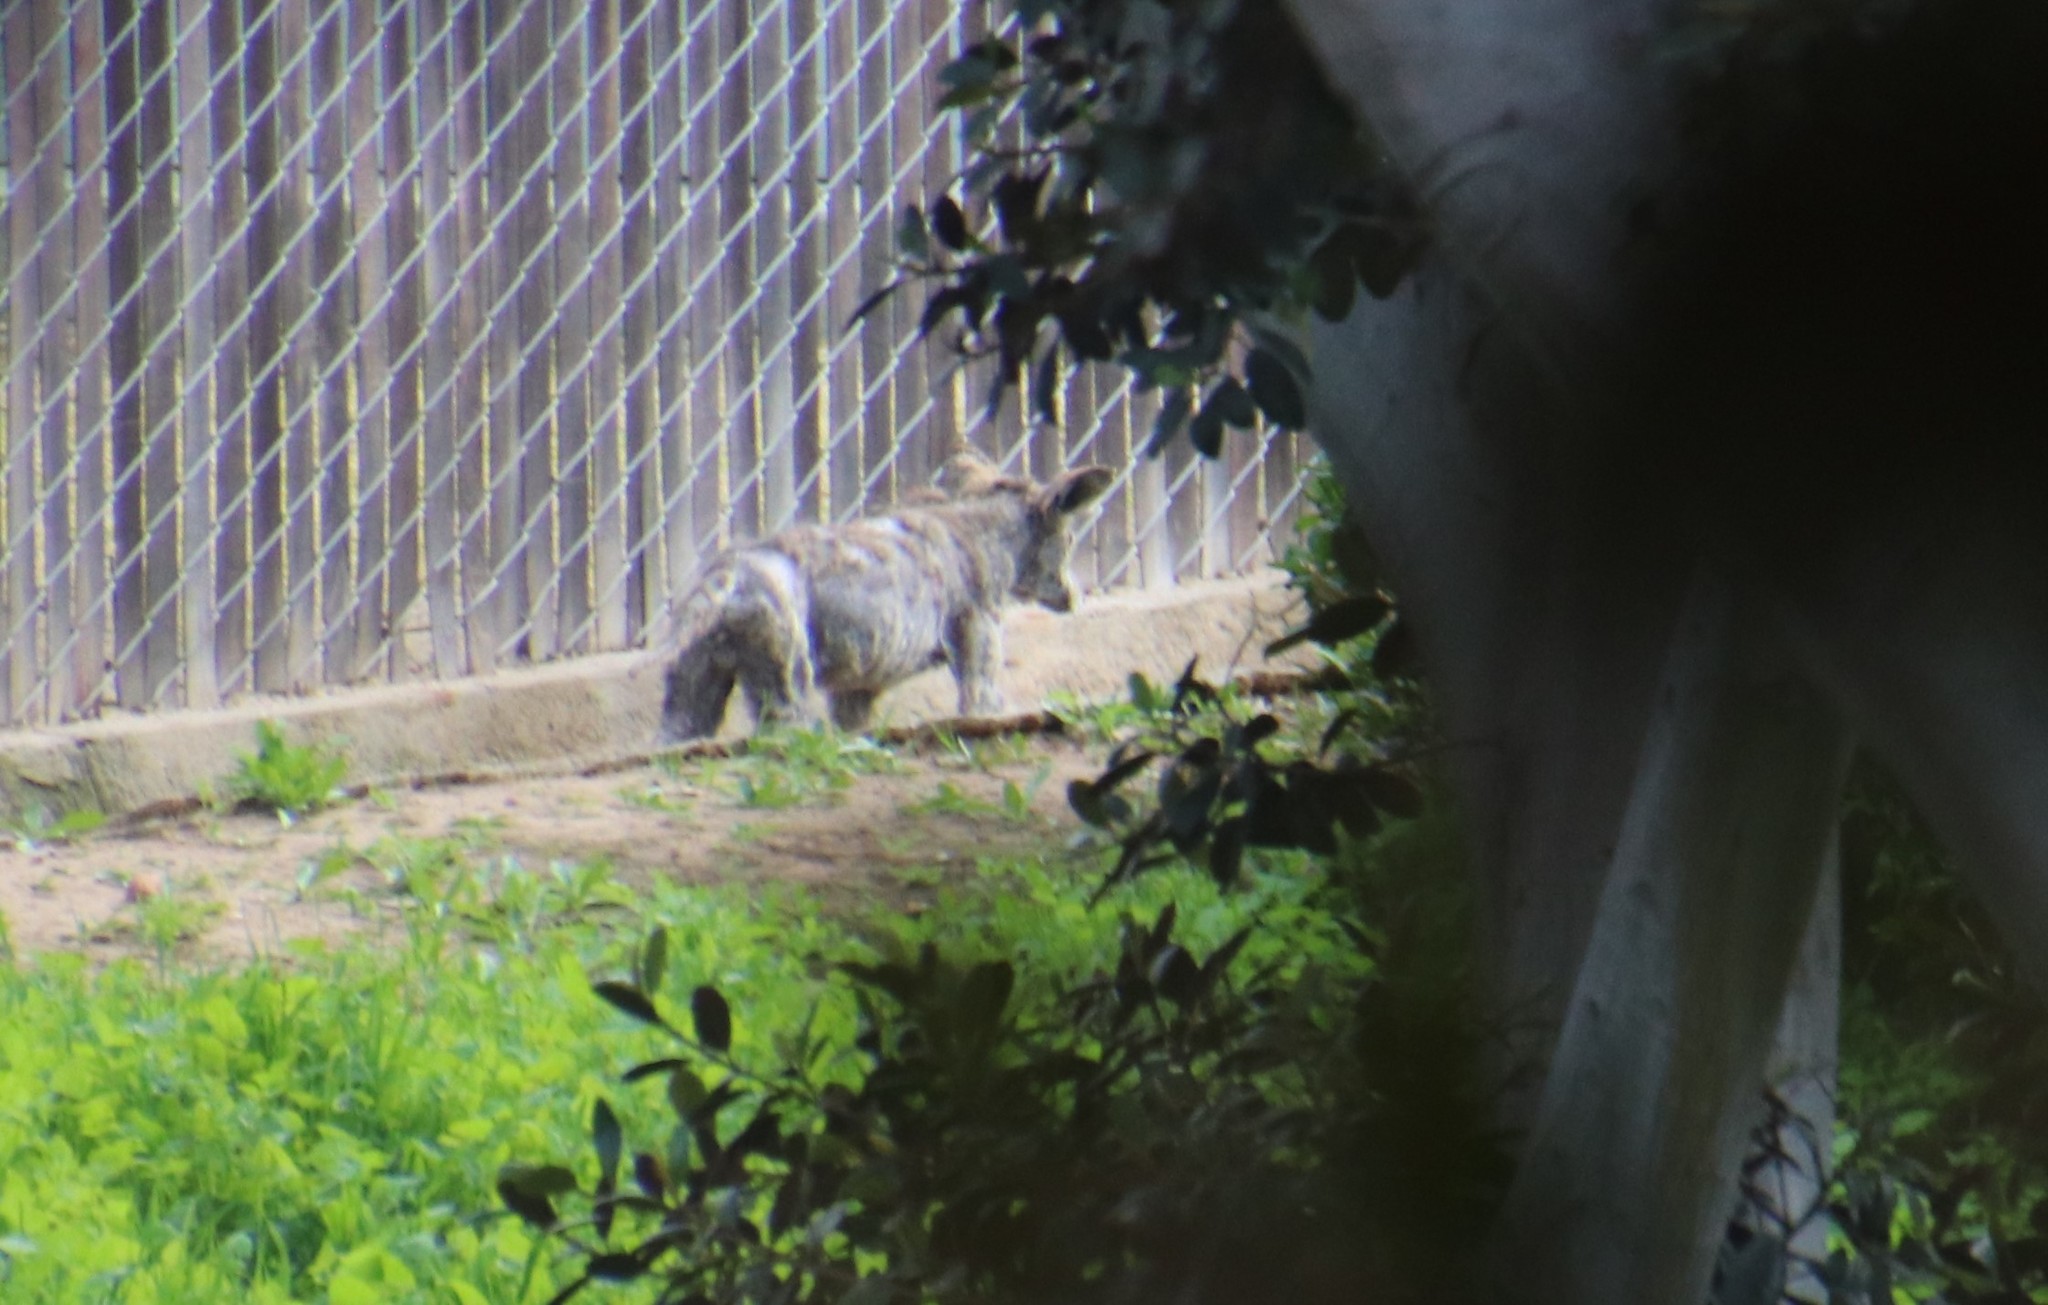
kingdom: Animalia
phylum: Chordata
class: Mammalia
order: Carnivora
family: Canidae
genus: Canis
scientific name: Canis latrans
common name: Coyote
